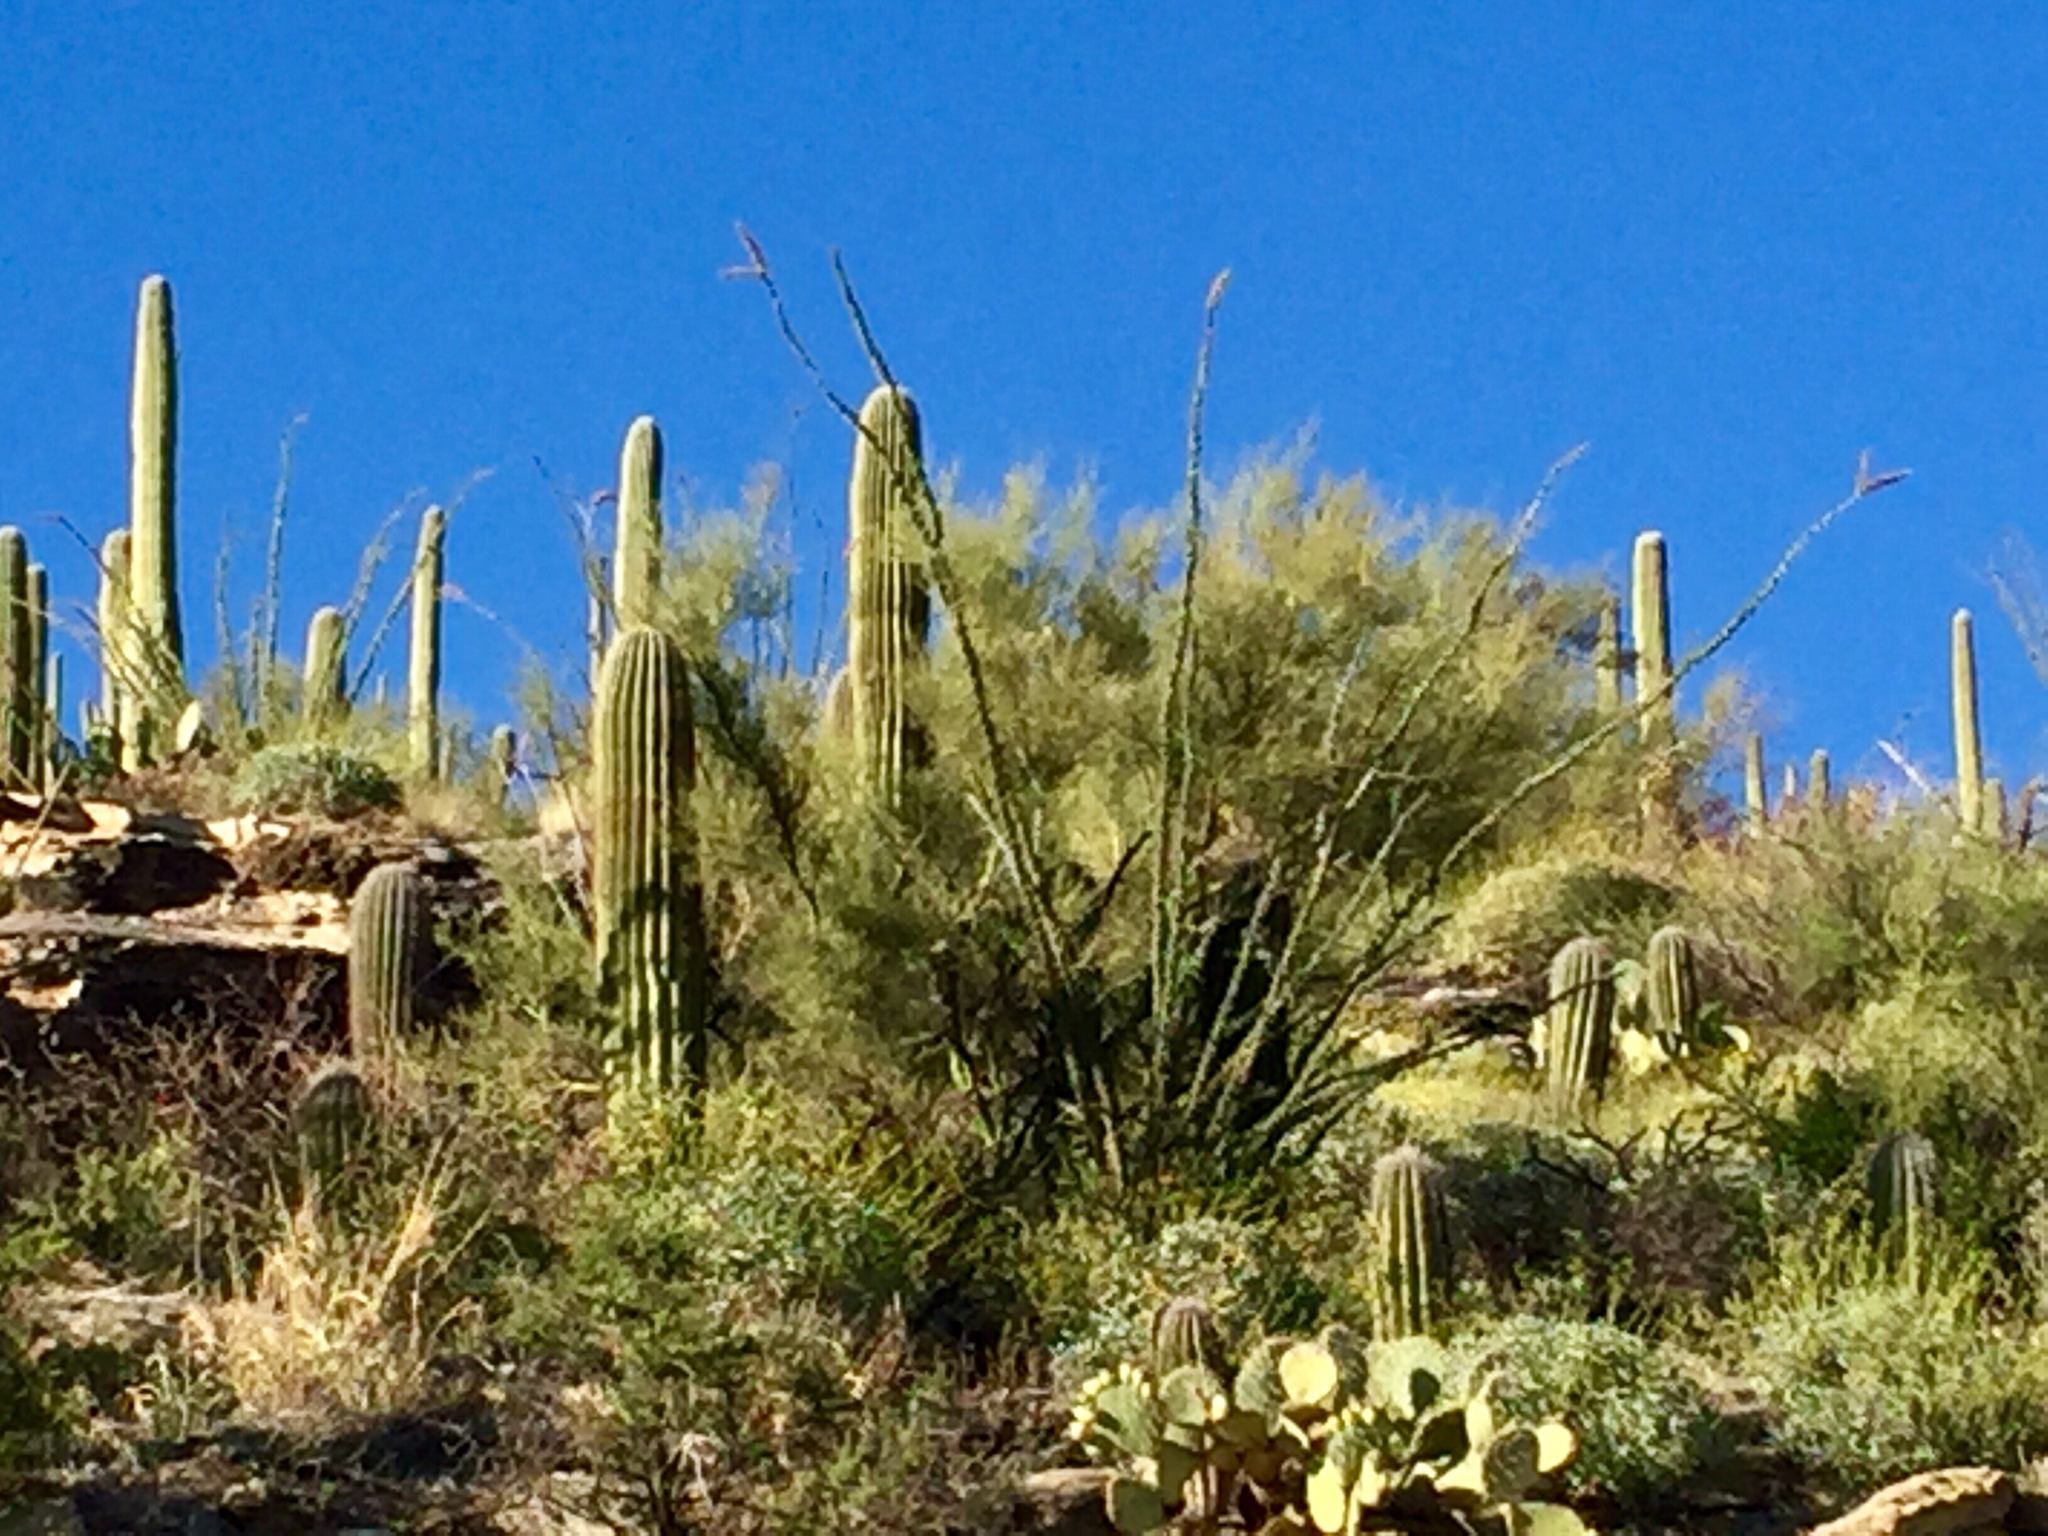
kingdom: Plantae
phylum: Tracheophyta
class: Magnoliopsida
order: Fabales
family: Fabaceae
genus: Parkinsonia
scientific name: Parkinsonia microphylla
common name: Yellow paloverde
